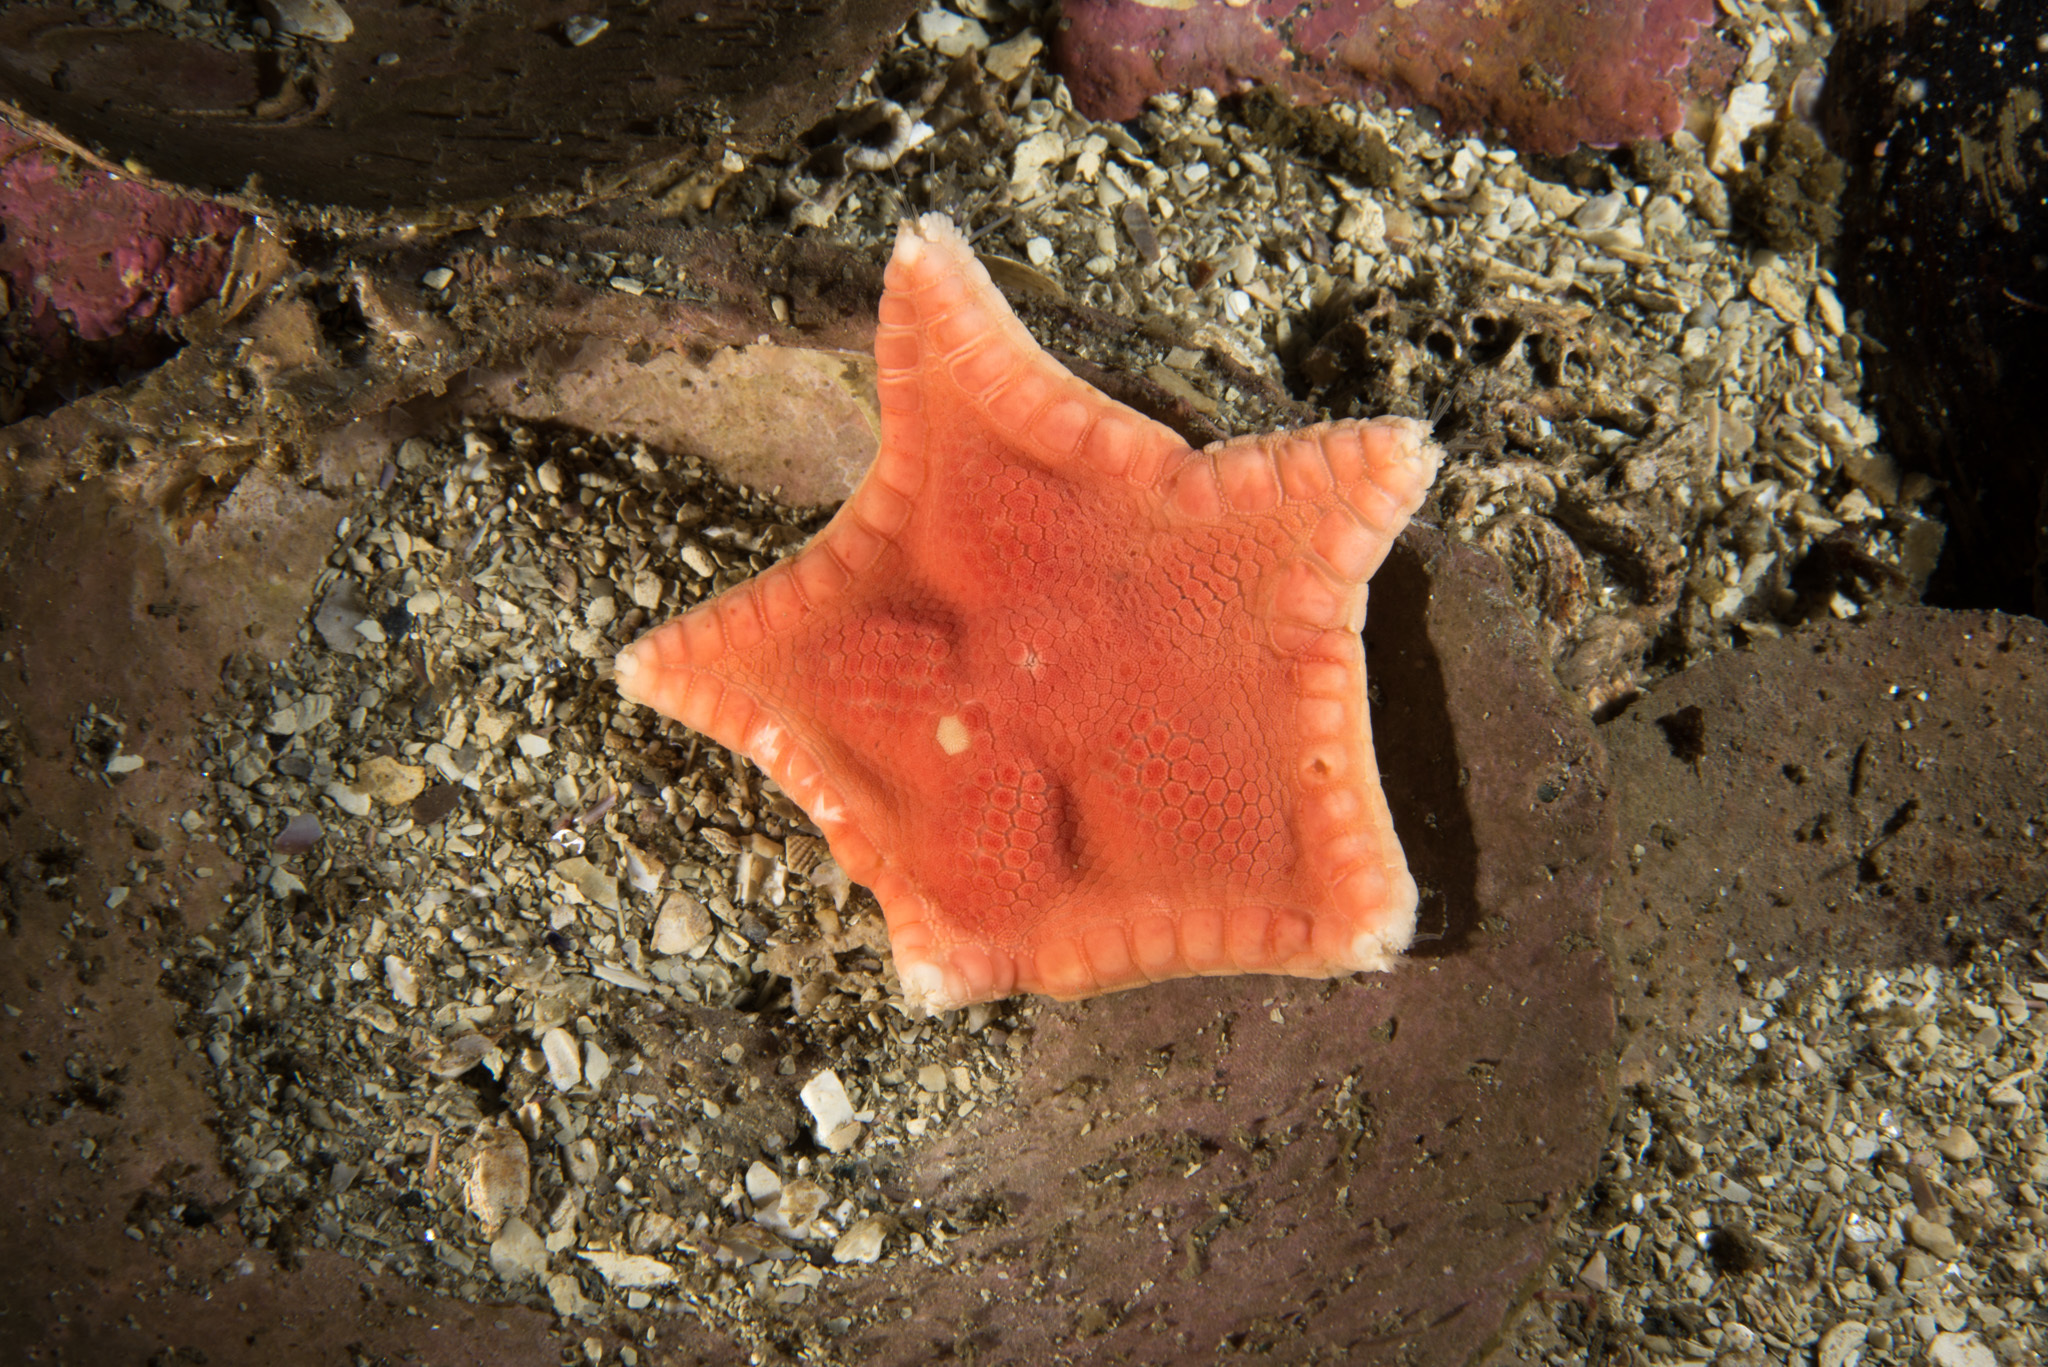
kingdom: Animalia
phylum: Echinodermata
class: Asteroidea
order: Valvatida
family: Goniasteridae
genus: Ceramaster
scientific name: Ceramaster granularis
